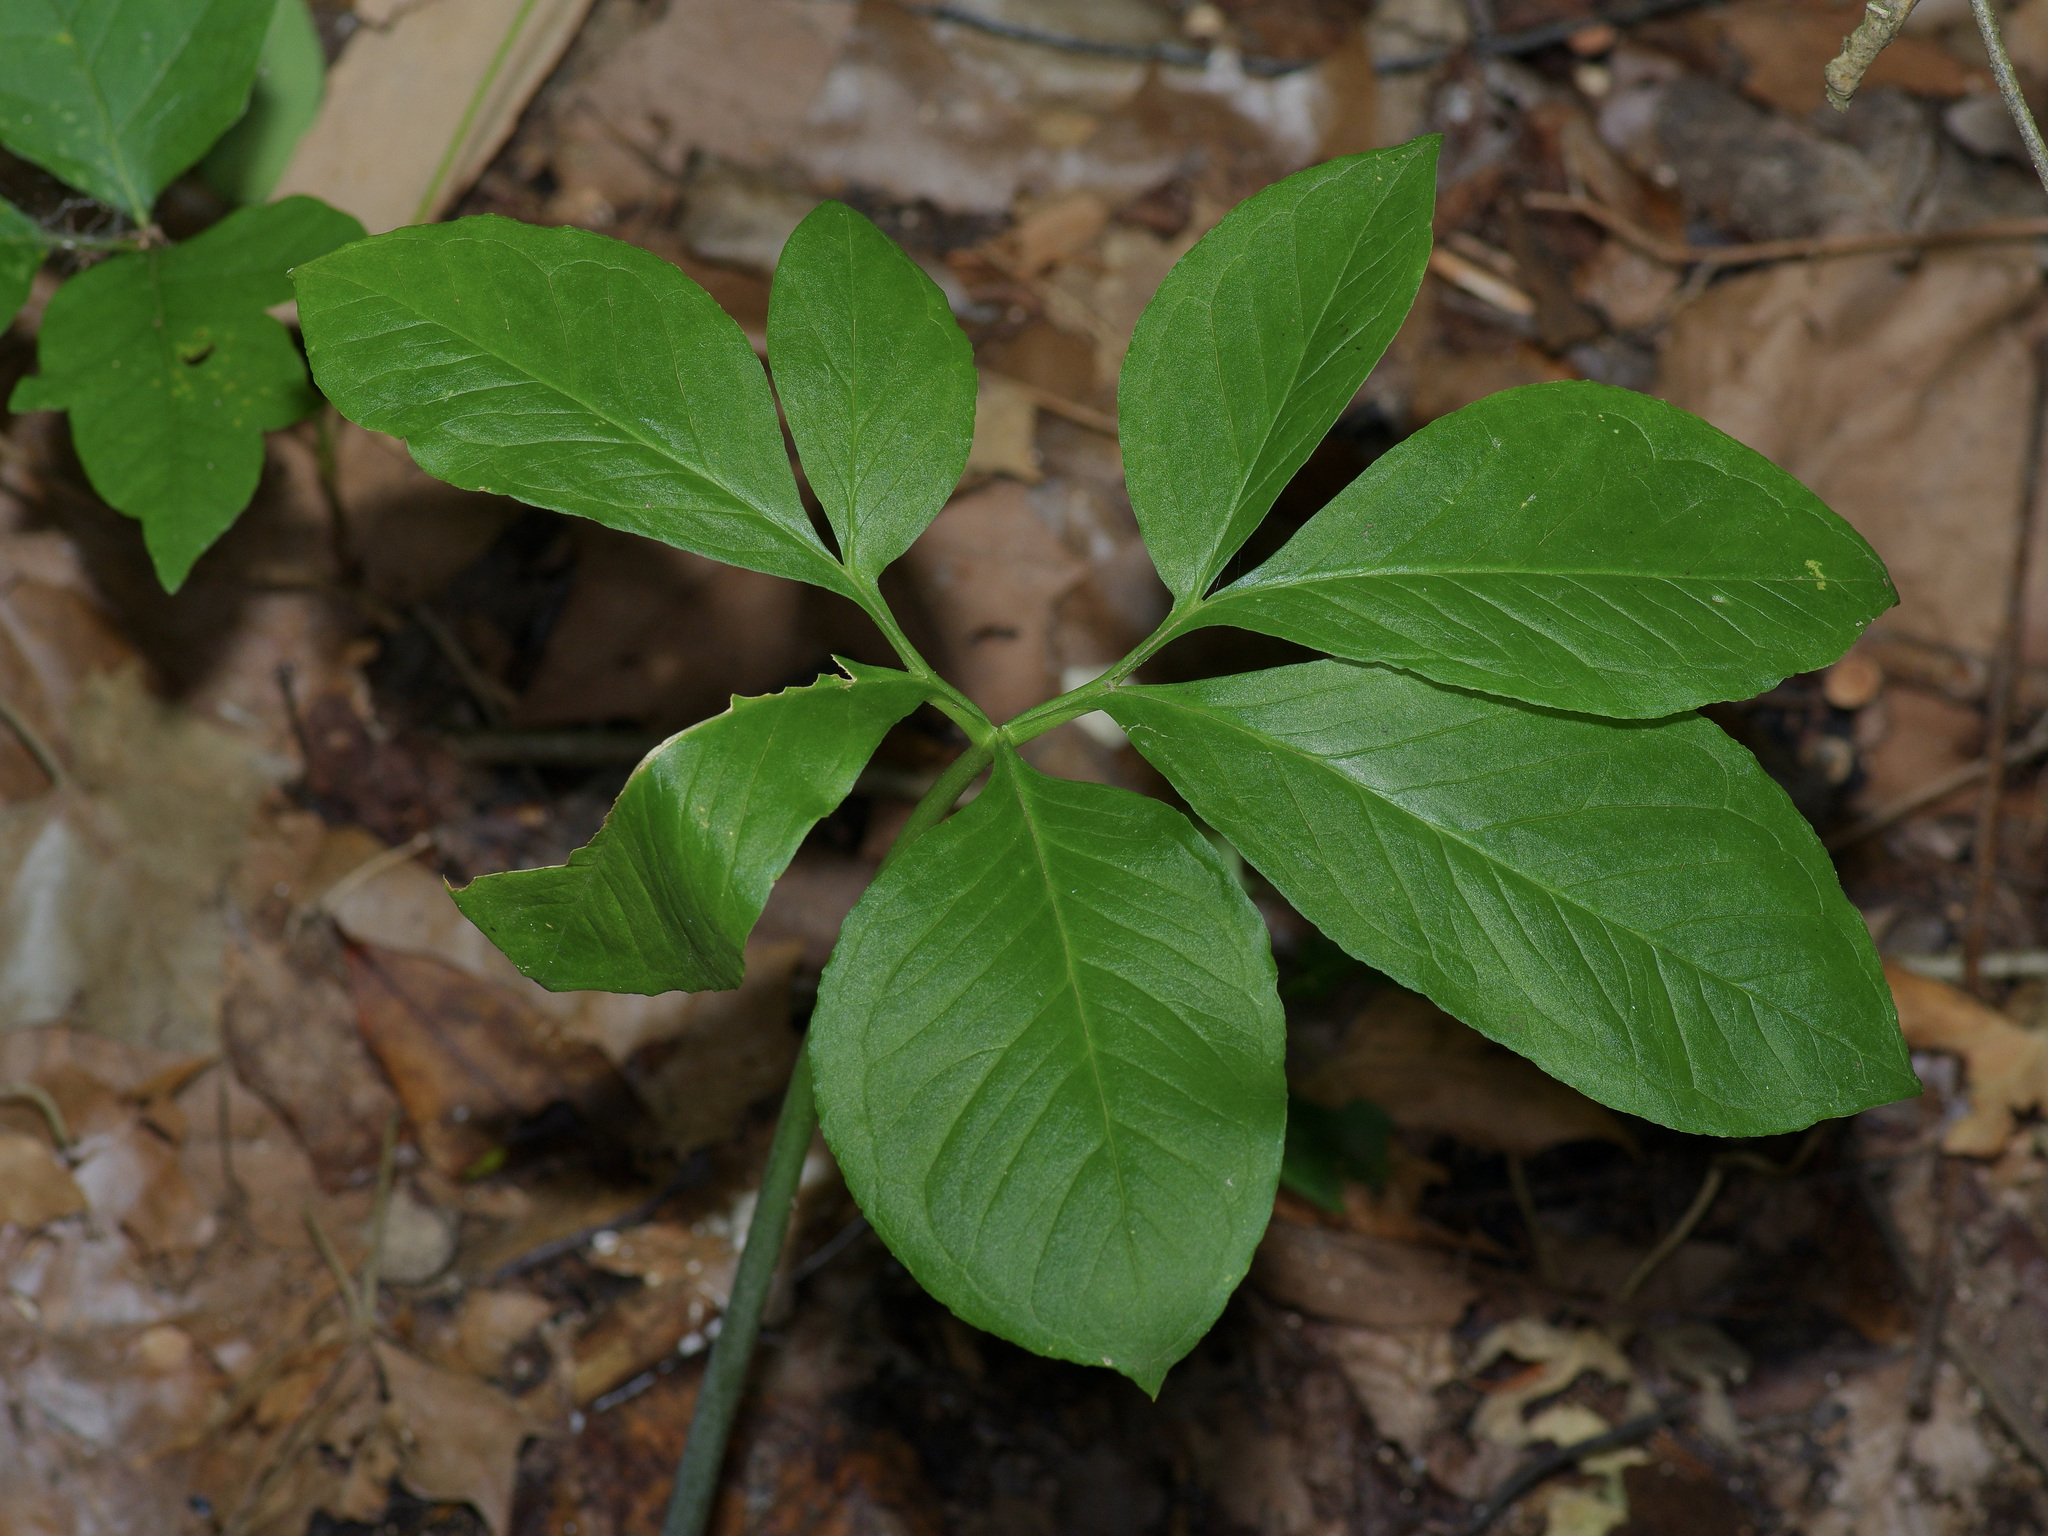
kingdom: Plantae
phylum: Tracheophyta
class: Liliopsida
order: Alismatales
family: Araceae
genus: Arisaema
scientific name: Arisaema dracontium
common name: Dragon-arum
